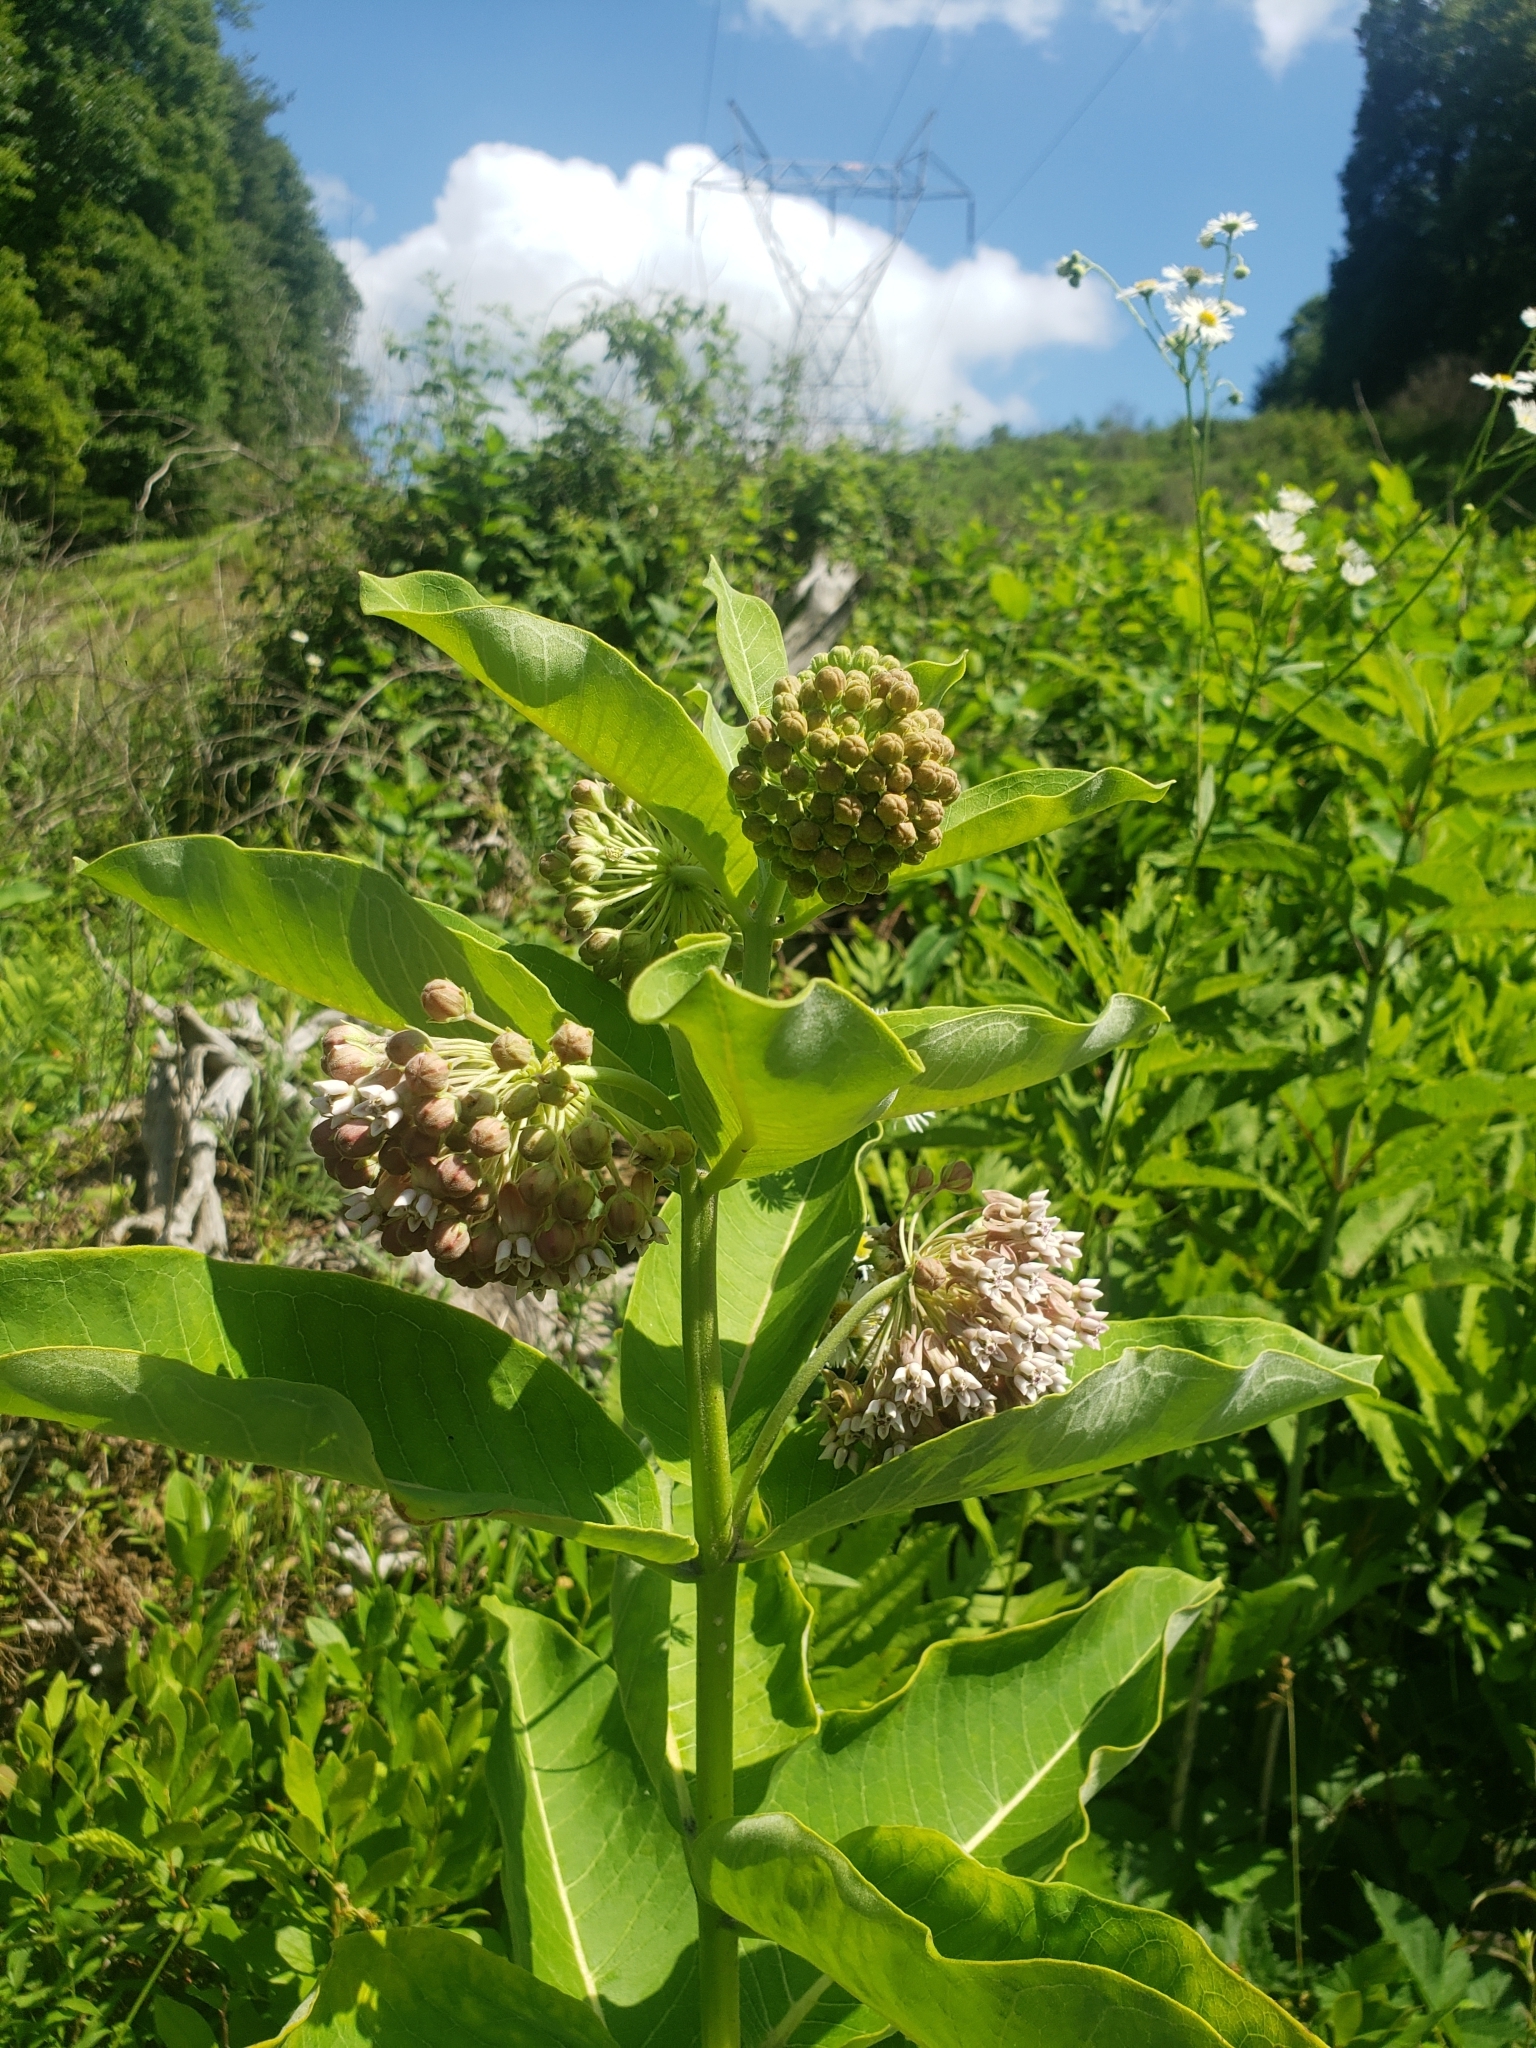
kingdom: Plantae
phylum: Tracheophyta
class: Magnoliopsida
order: Gentianales
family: Apocynaceae
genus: Asclepias
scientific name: Asclepias syriaca
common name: Common milkweed
